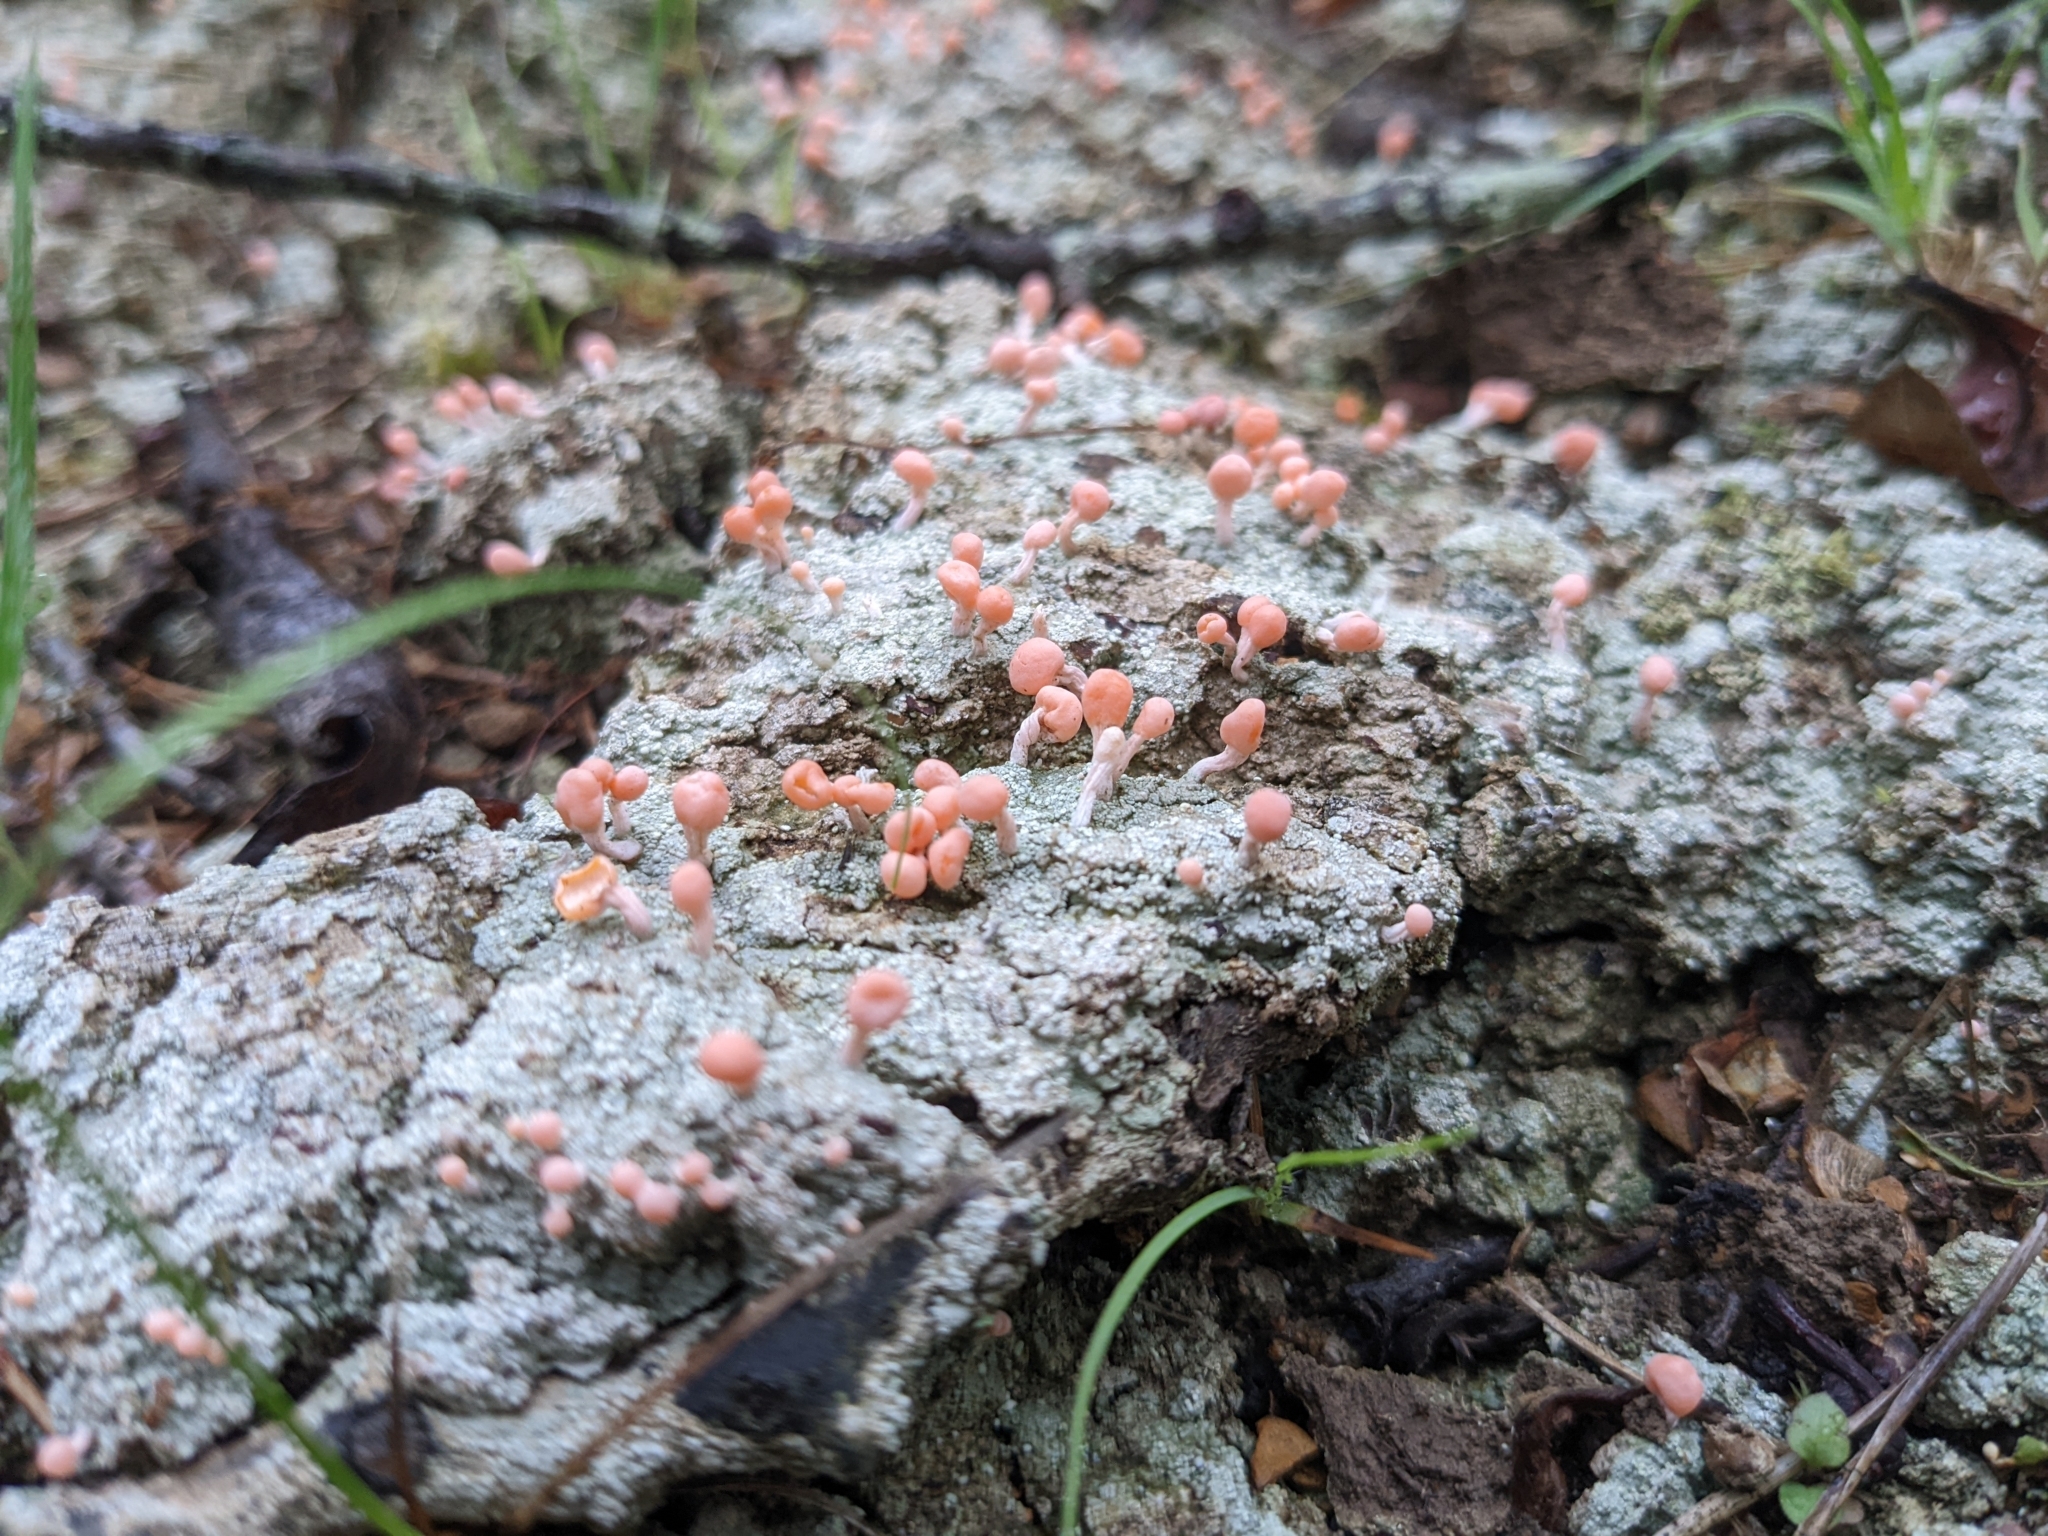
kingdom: Fungi
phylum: Ascomycota
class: Lecanoromycetes
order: Pertusariales
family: Icmadophilaceae
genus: Dibaeis
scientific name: Dibaeis baeomyces
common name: Pink earth lichen
